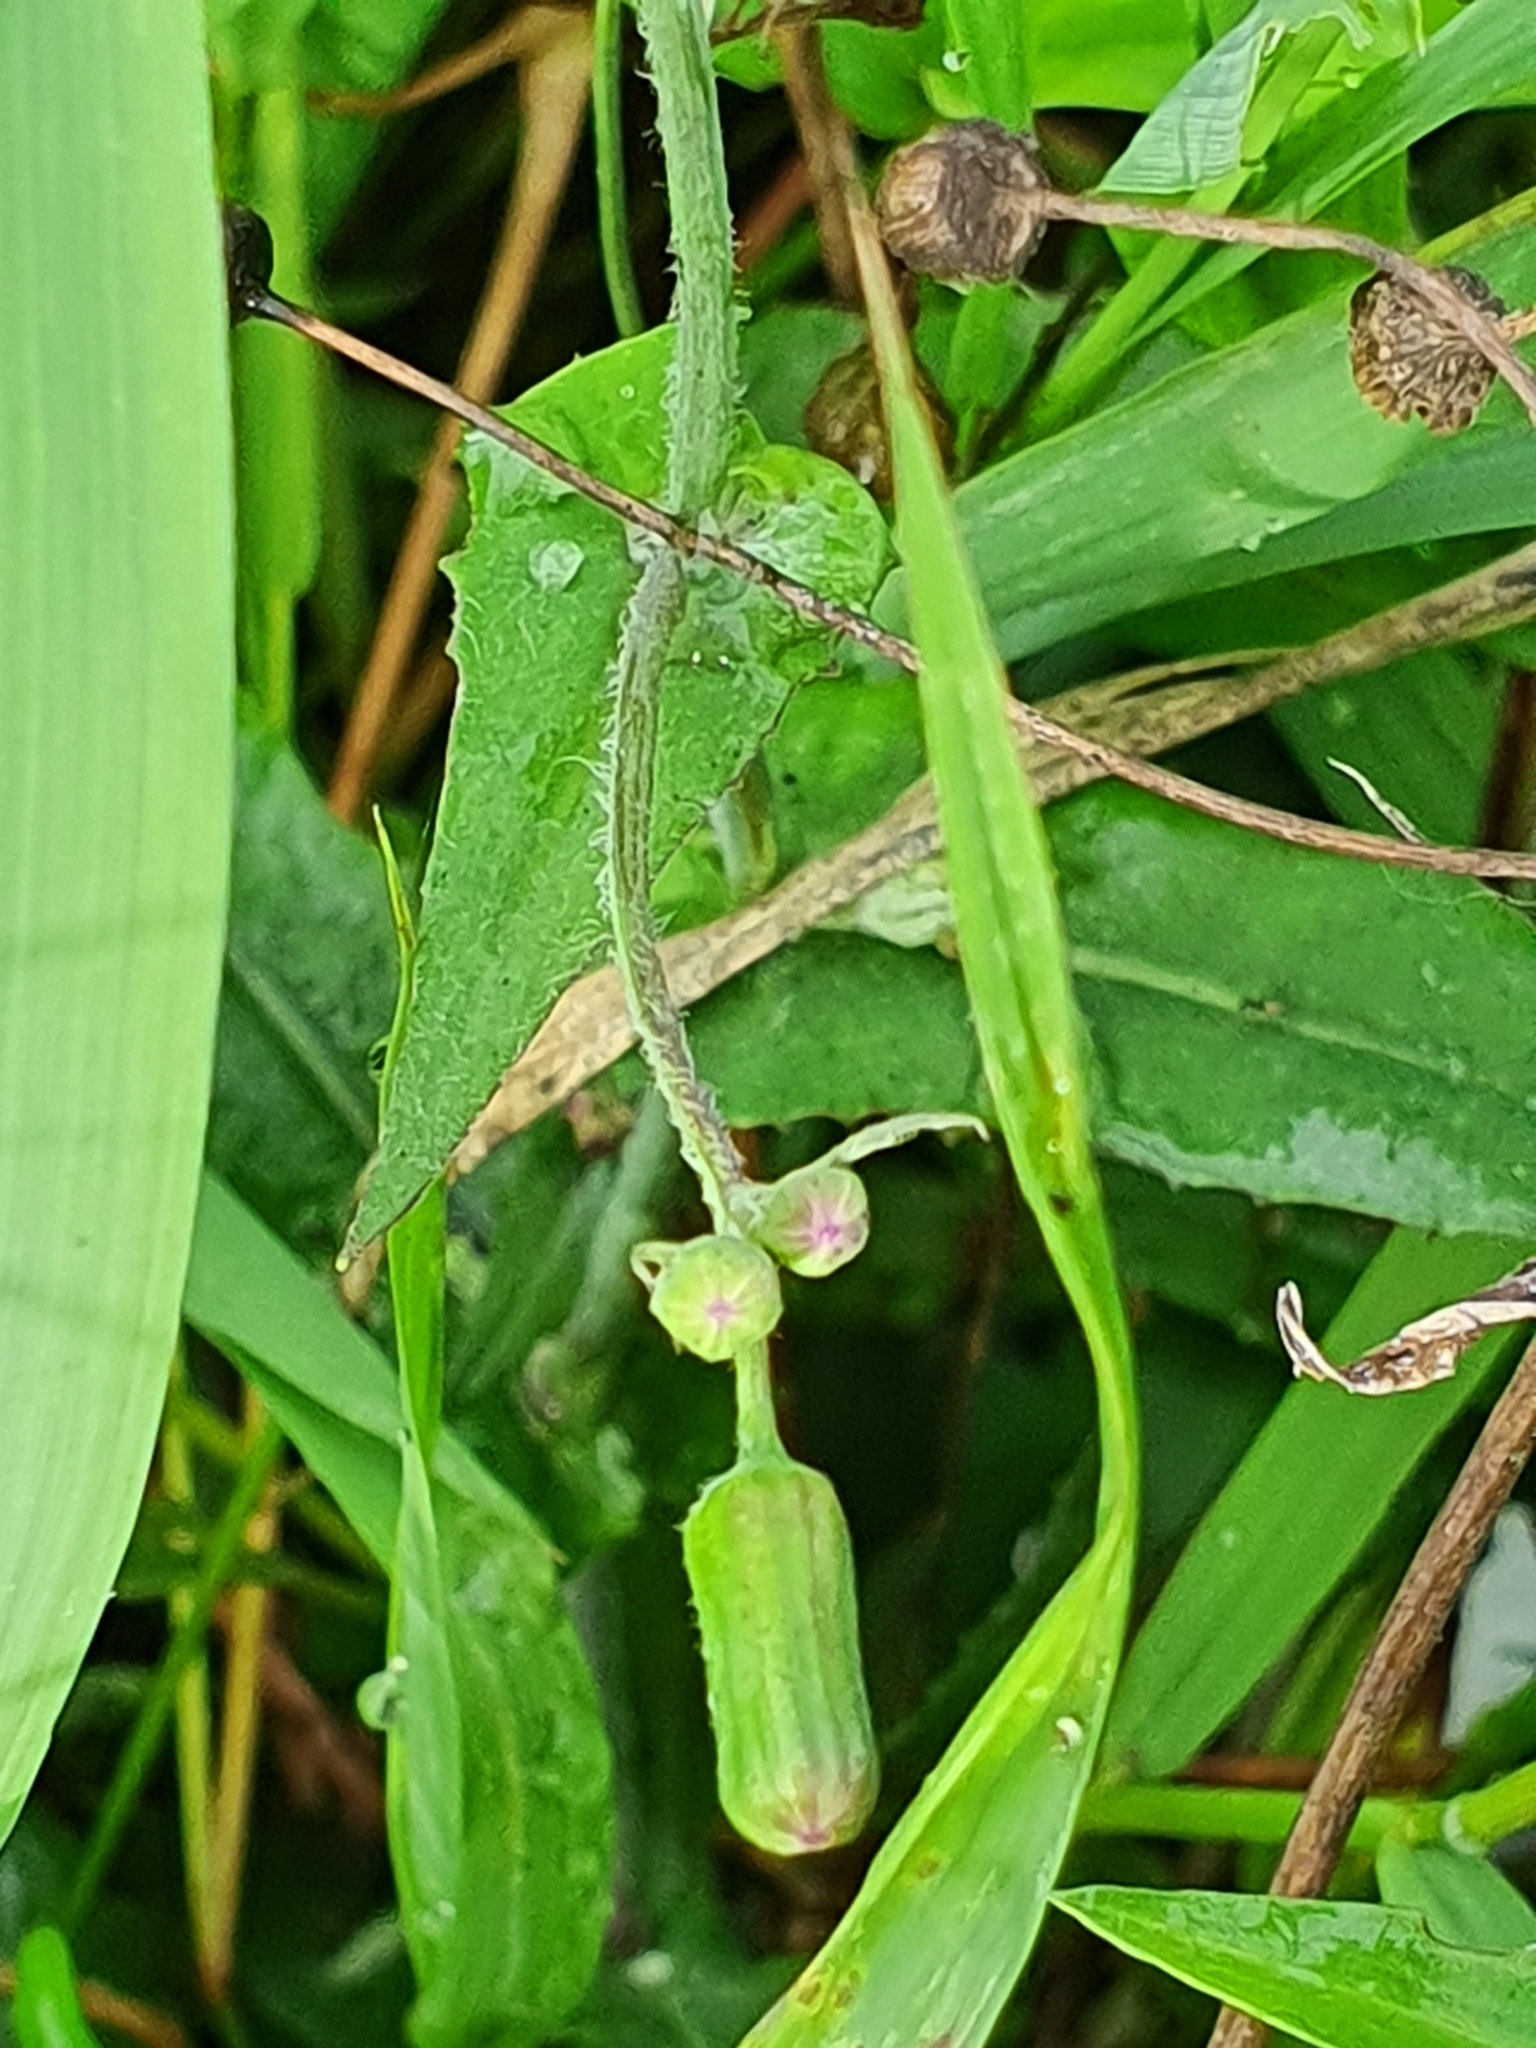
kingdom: Plantae
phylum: Tracheophyta
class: Magnoliopsida
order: Asterales
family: Asteraceae
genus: Emilia
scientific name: Emilia sonchifolia
